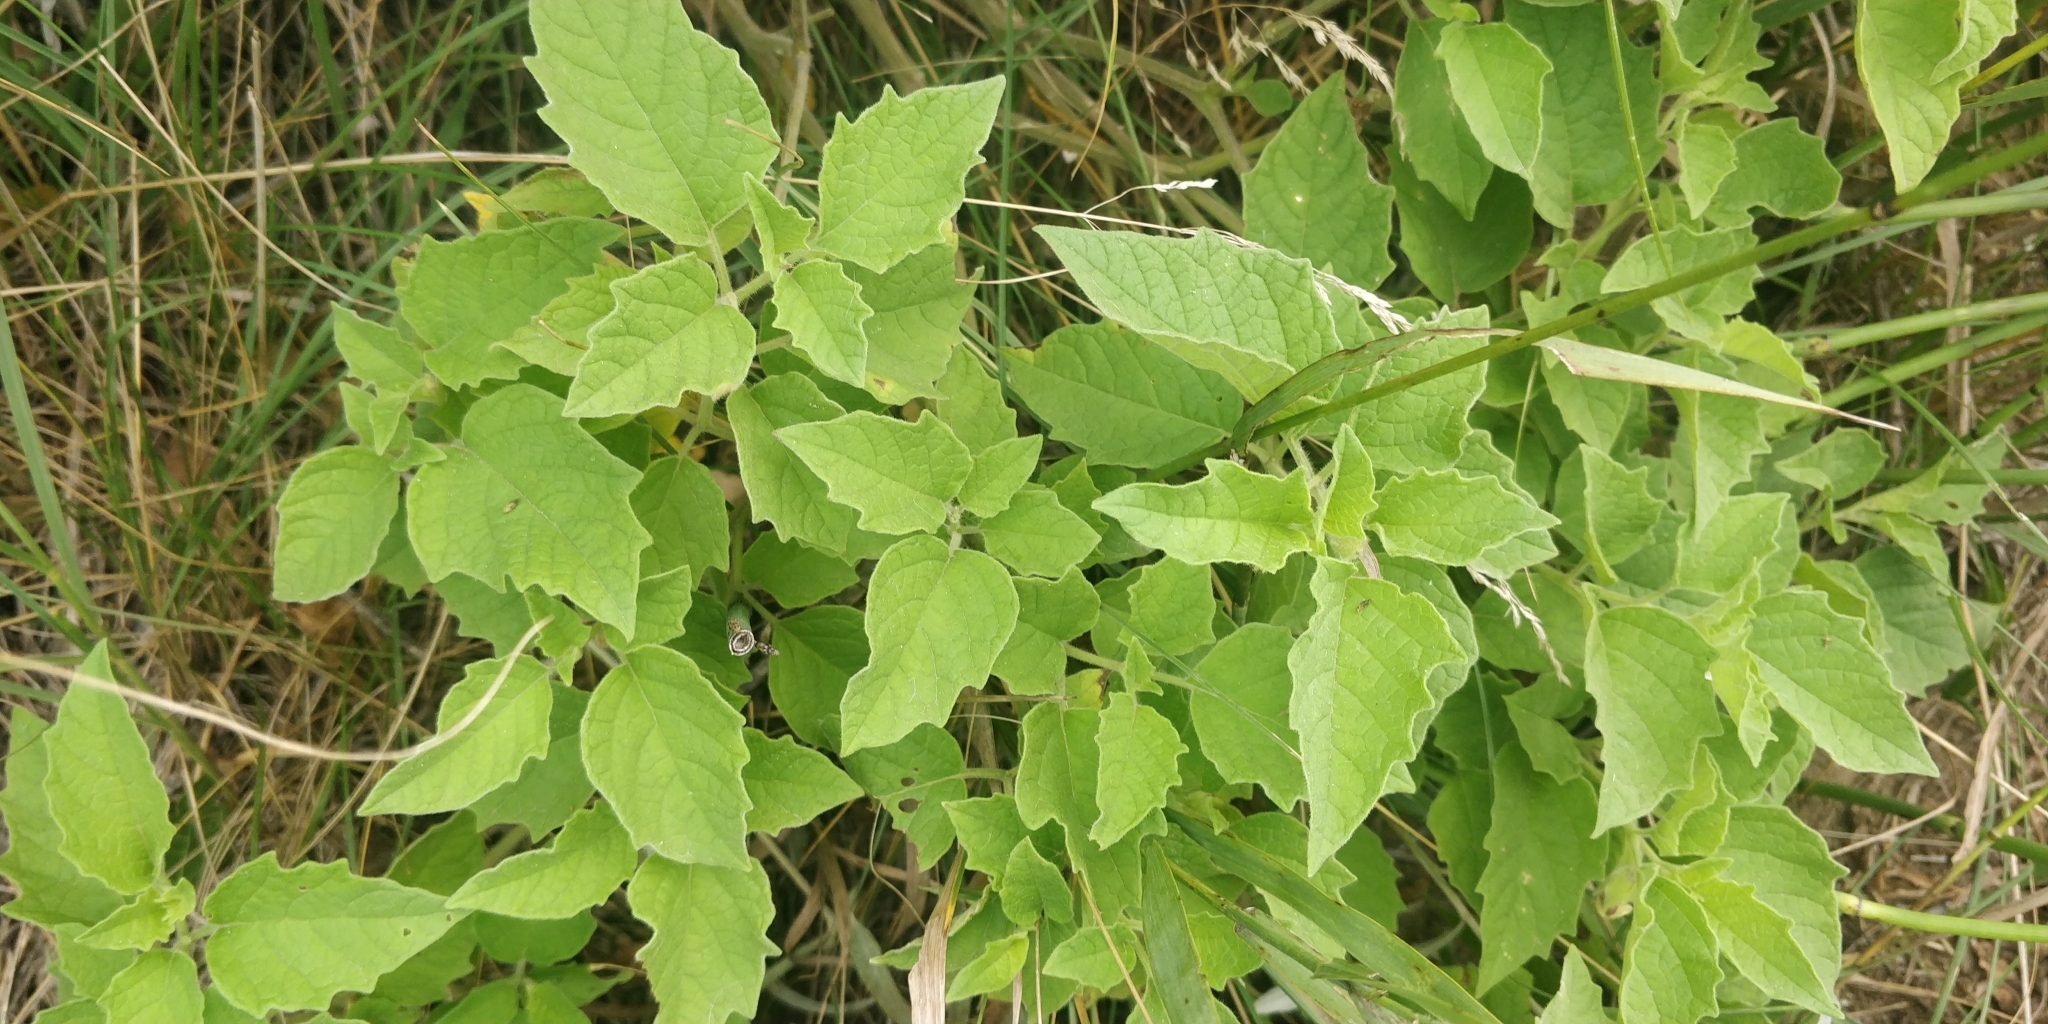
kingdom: Plantae
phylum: Tracheophyta
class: Magnoliopsida
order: Solanales
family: Solanaceae
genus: Physalis
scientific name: Physalis heterophylla
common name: Clammy ground-cherry
